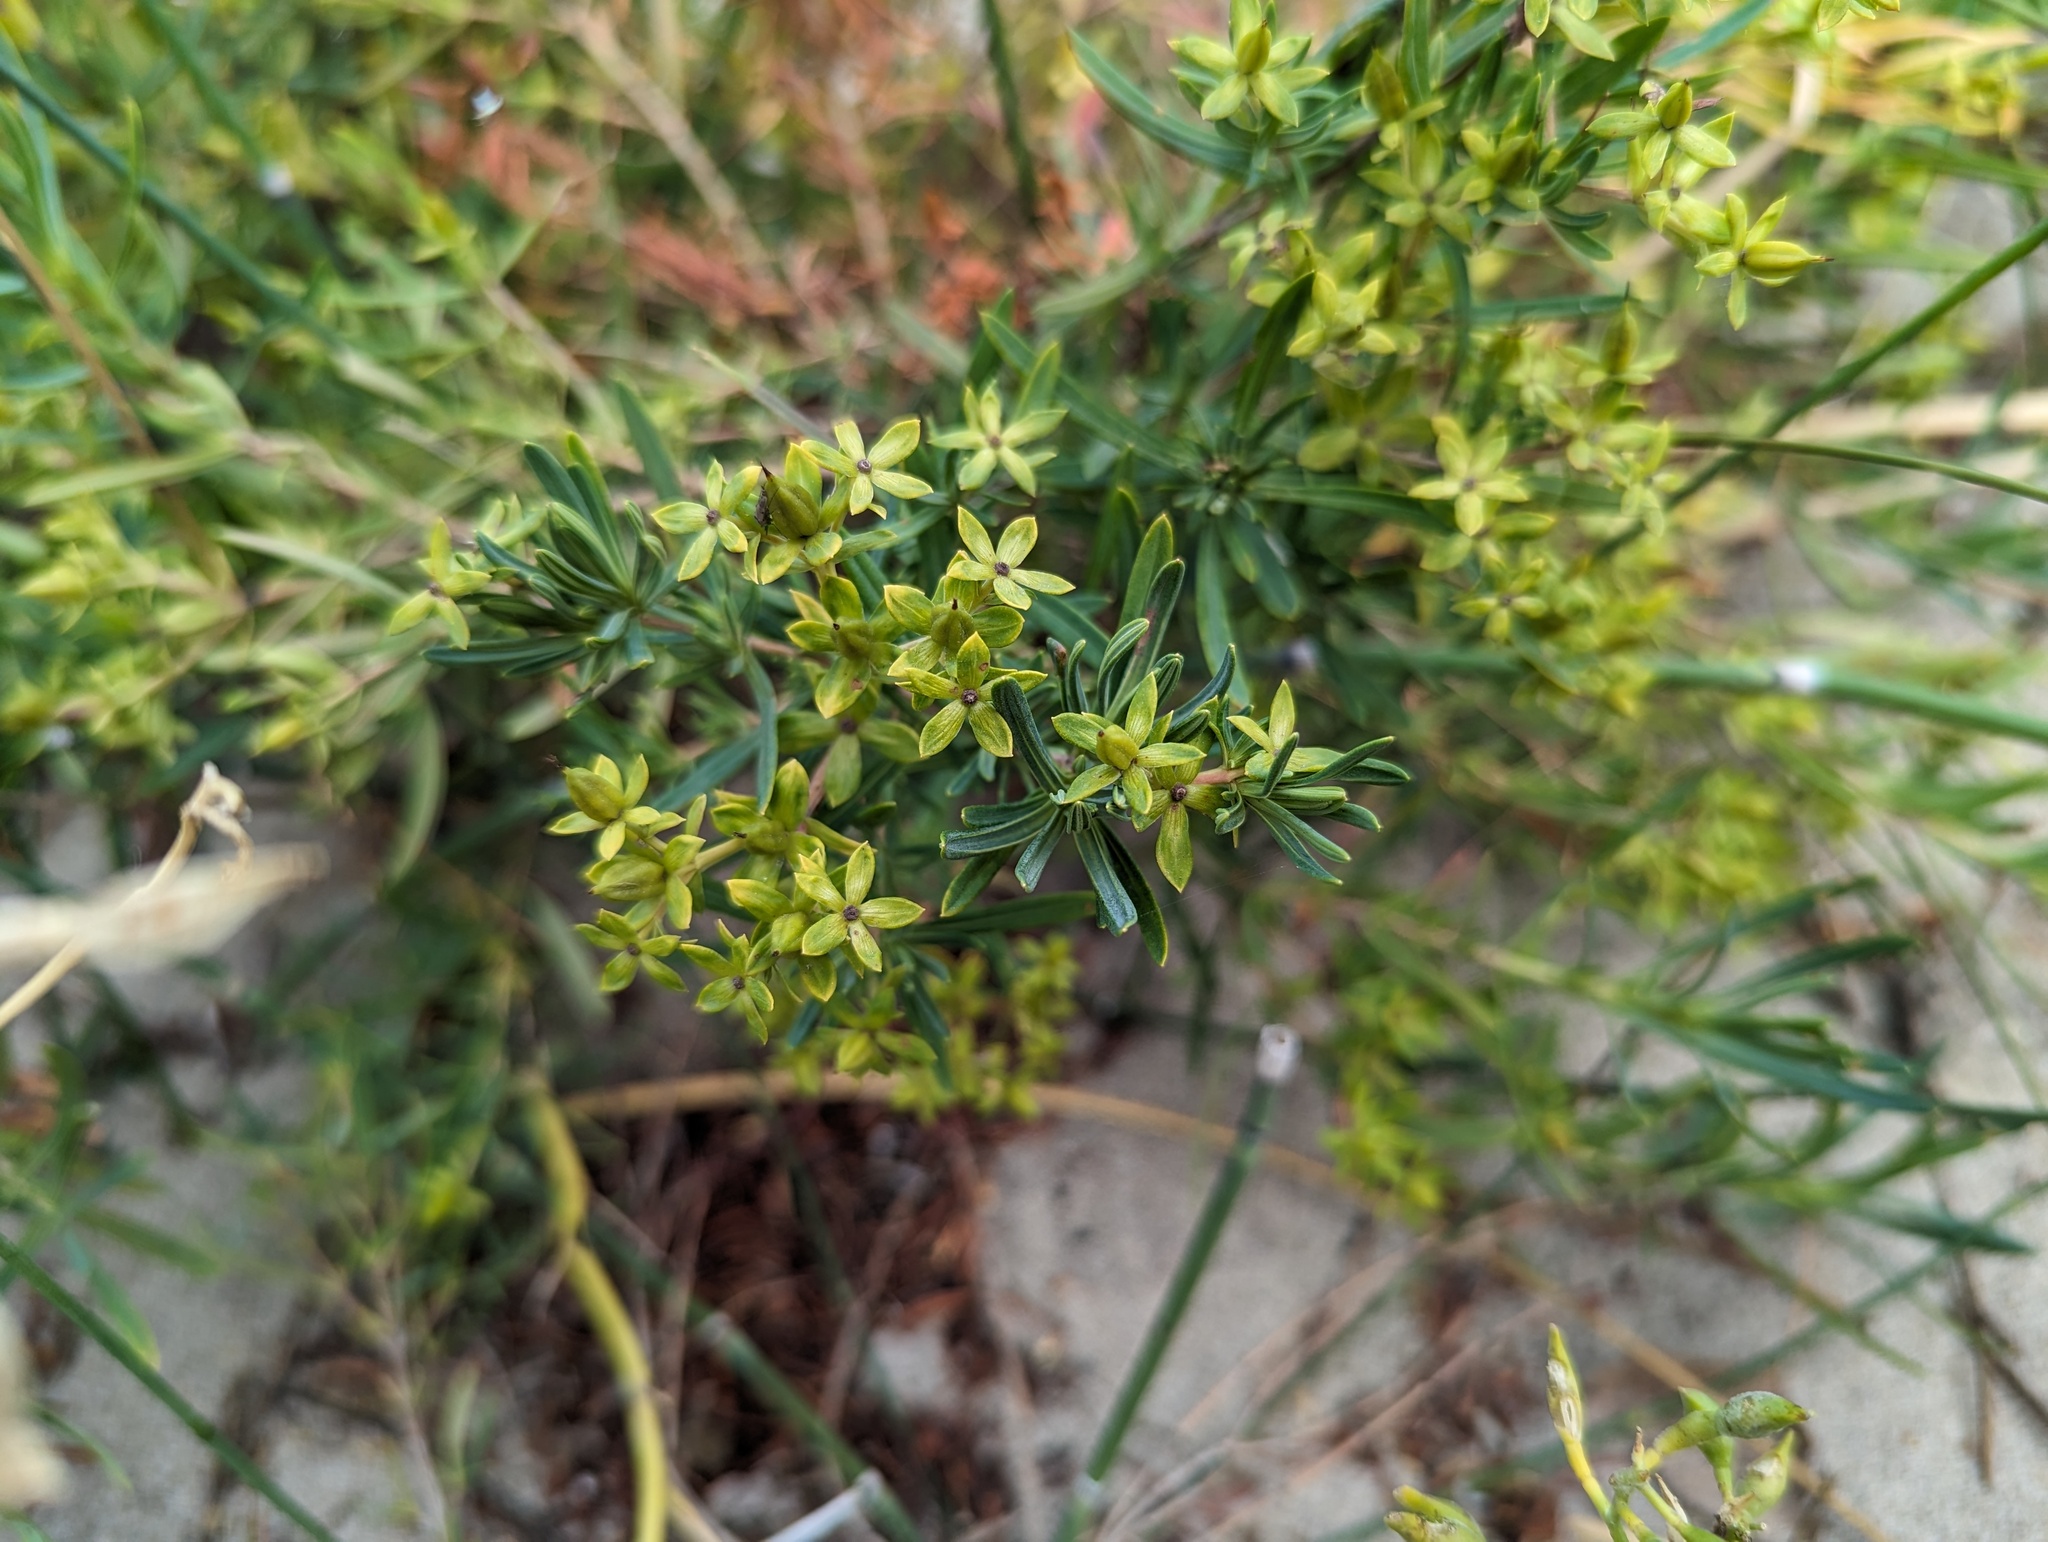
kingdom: Plantae
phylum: Tracheophyta
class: Magnoliopsida
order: Malpighiales
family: Hypericaceae
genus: Hypericum
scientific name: Hypericum kalmianum
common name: Kalm's st. john's-wort
